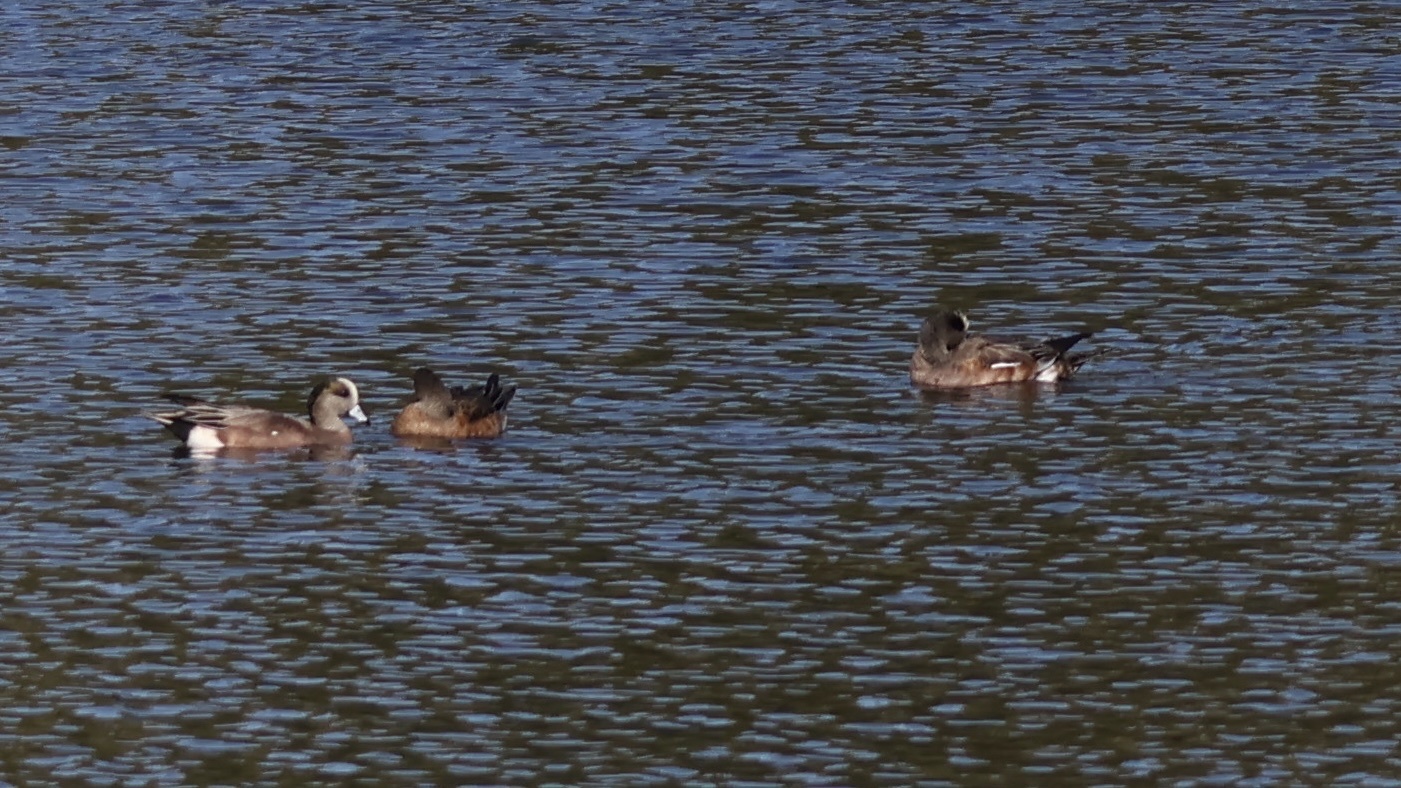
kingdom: Animalia
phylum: Chordata
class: Aves
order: Anseriformes
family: Anatidae
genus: Mareca
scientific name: Mareca americana
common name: American wigeon
